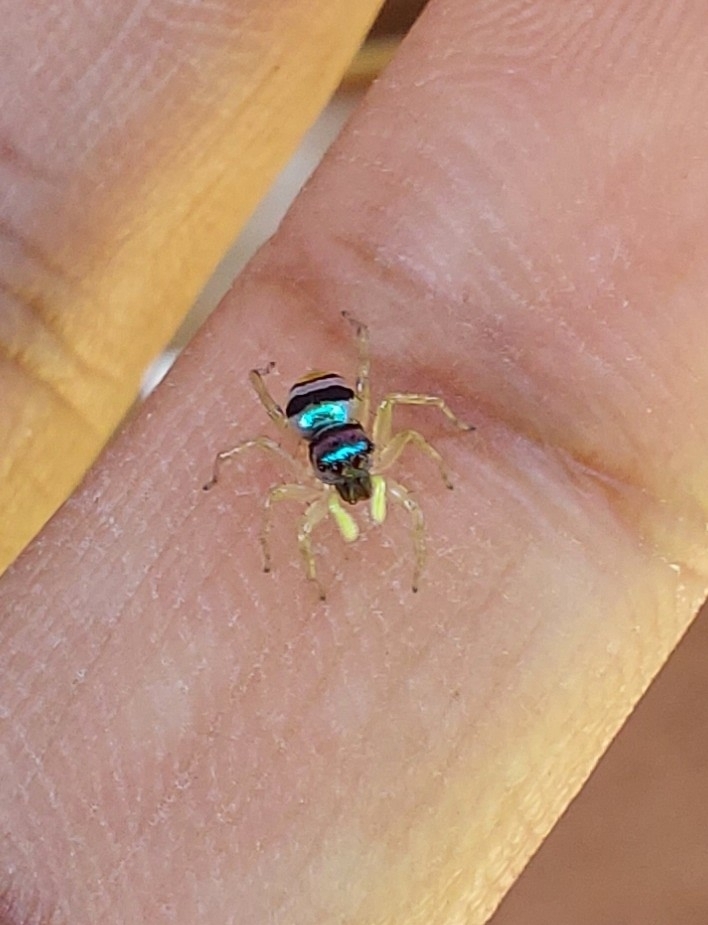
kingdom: Animalia
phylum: Arthropoda
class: Arachnida
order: Araneae
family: Salticidae
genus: Phintella
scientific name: Phintella vittata
